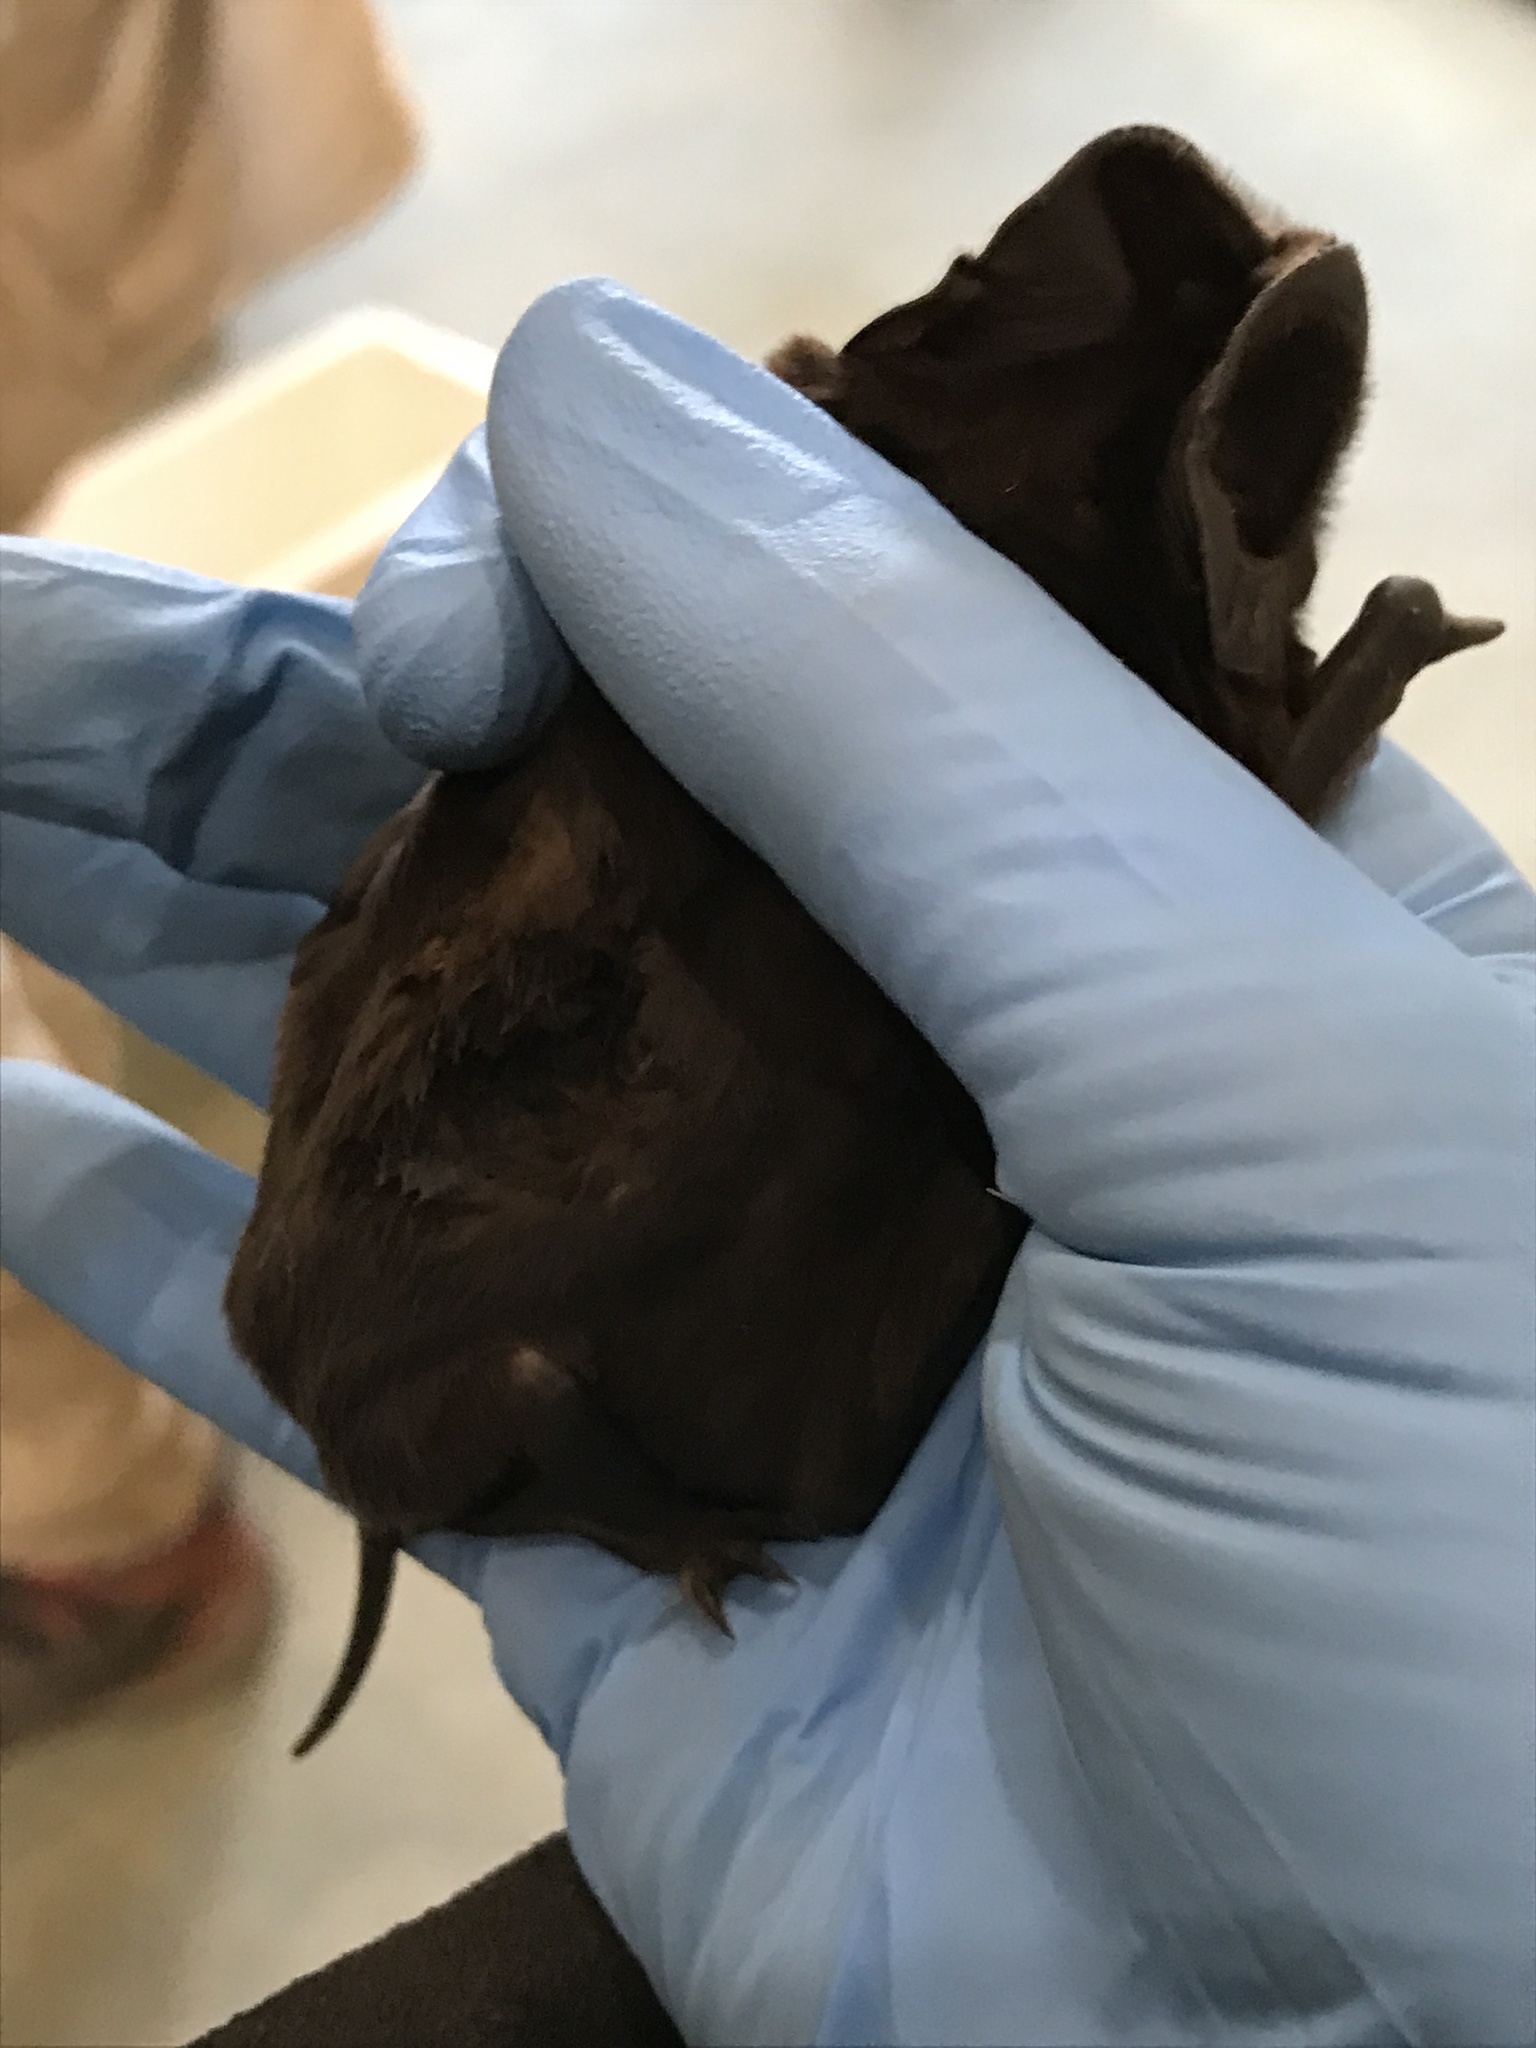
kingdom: Animalia
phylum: Chordata
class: Mammalia
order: Chiroptera
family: Molossidae
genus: Austronomus
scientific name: Austronomus australis
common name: White-striped free-tailed bat
